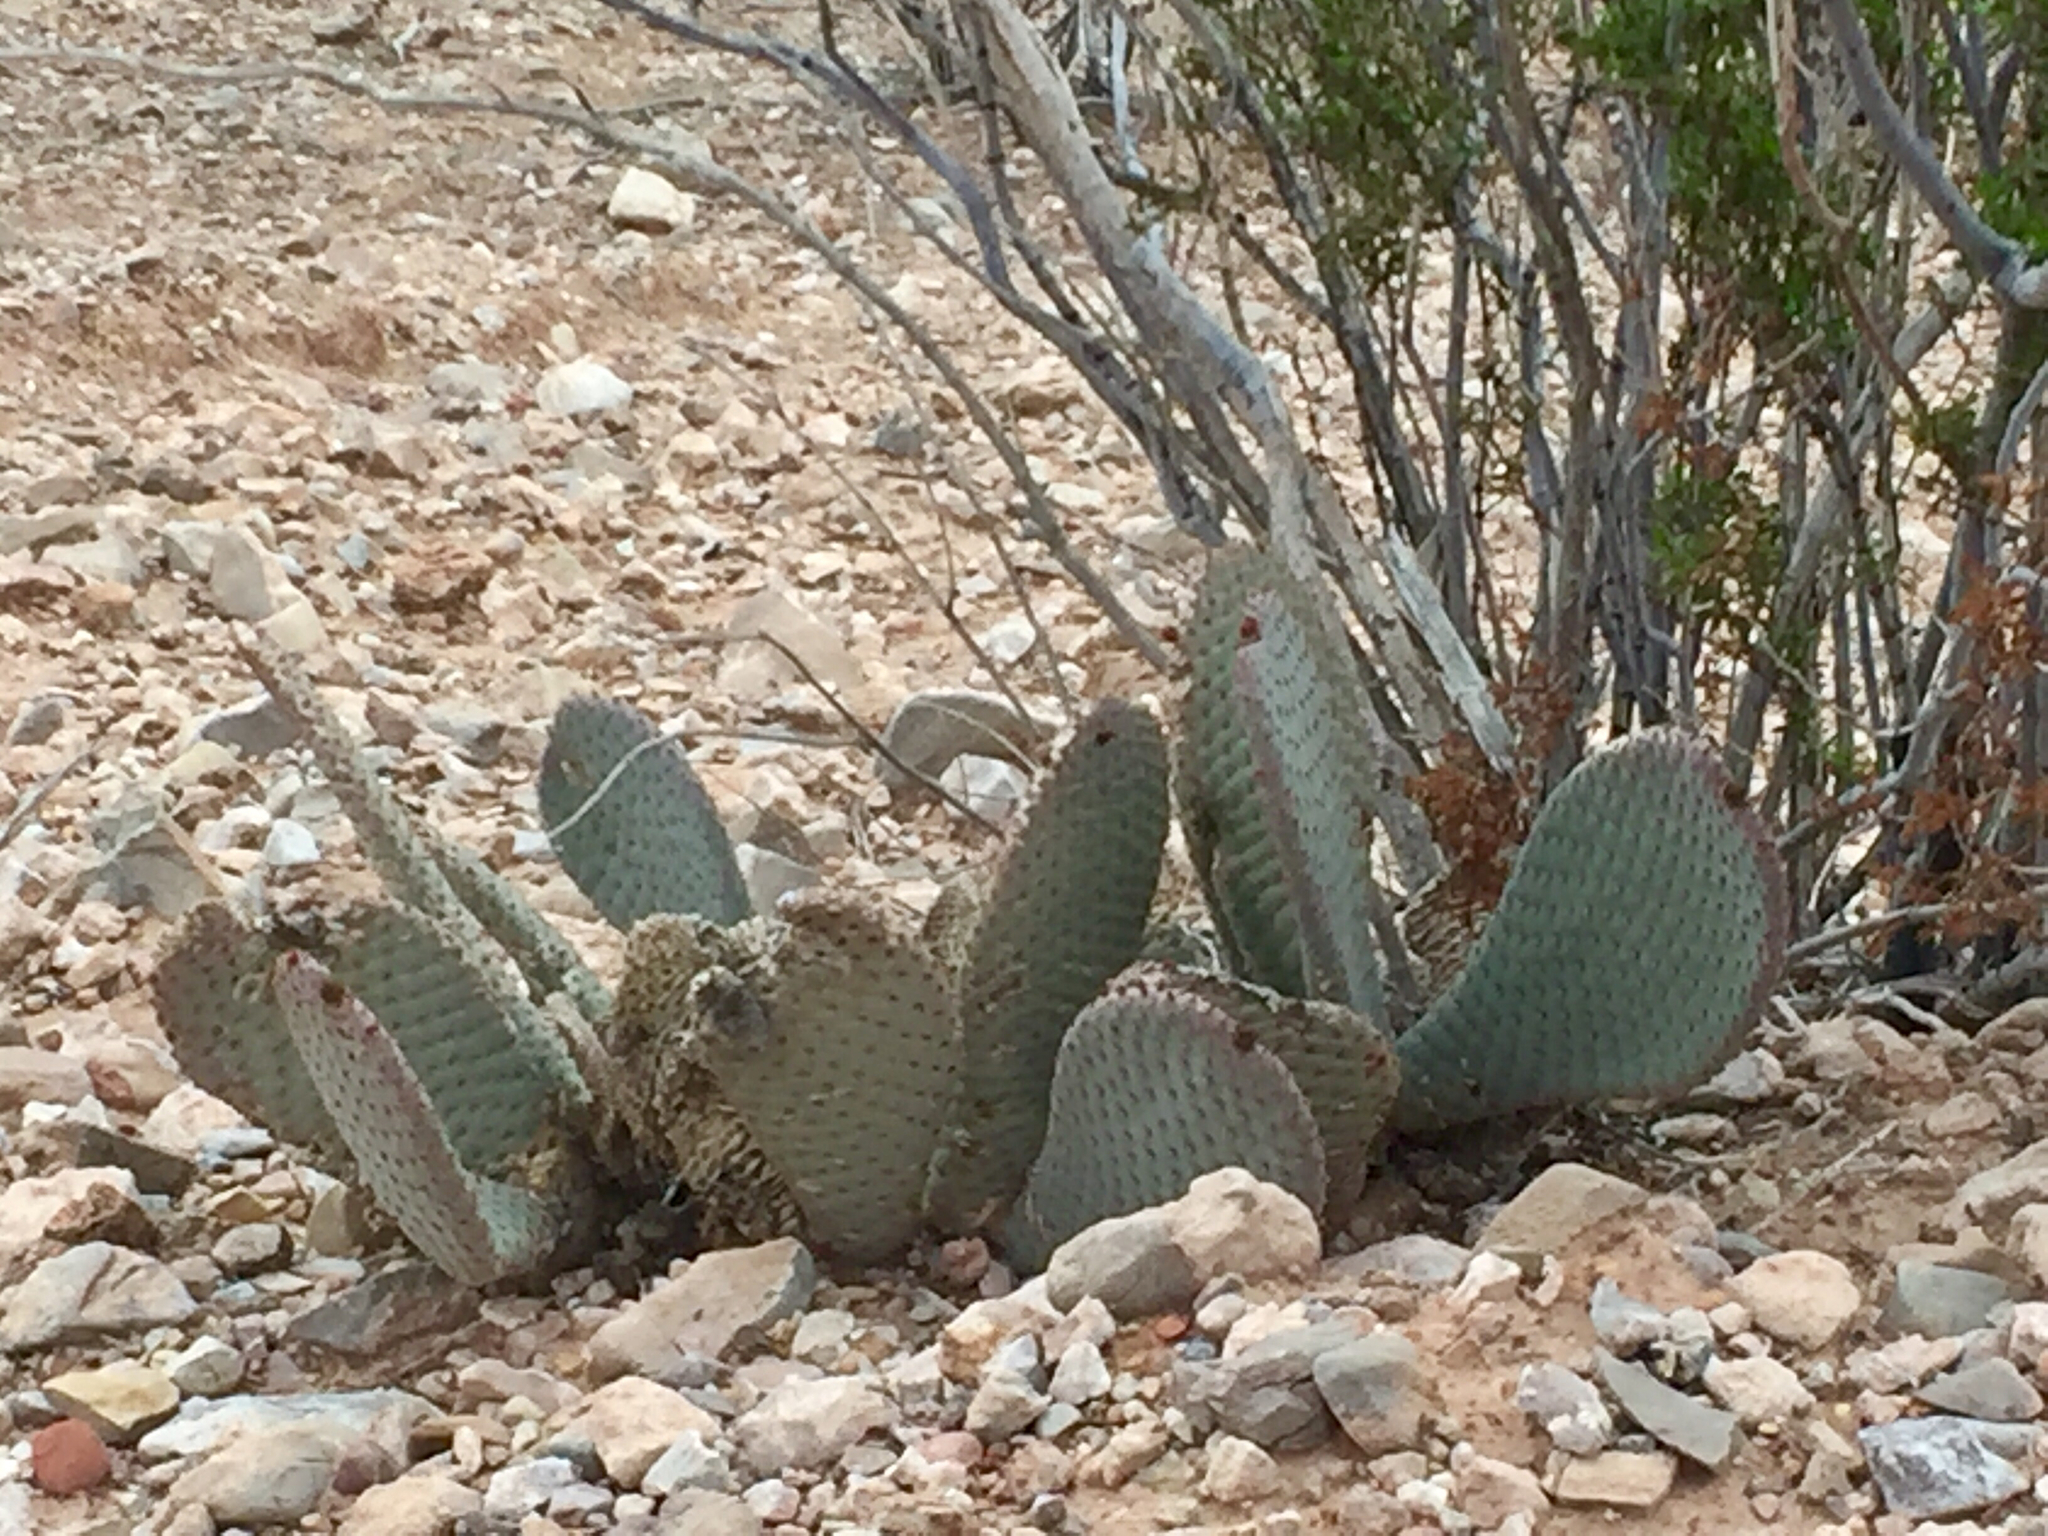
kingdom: Plantae
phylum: Tracheophyta
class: Magnoliopsida
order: Caryophyllales
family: Cactaceae
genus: Opuntia
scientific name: Opuntia basilaris
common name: Beavertail prickly-pear
